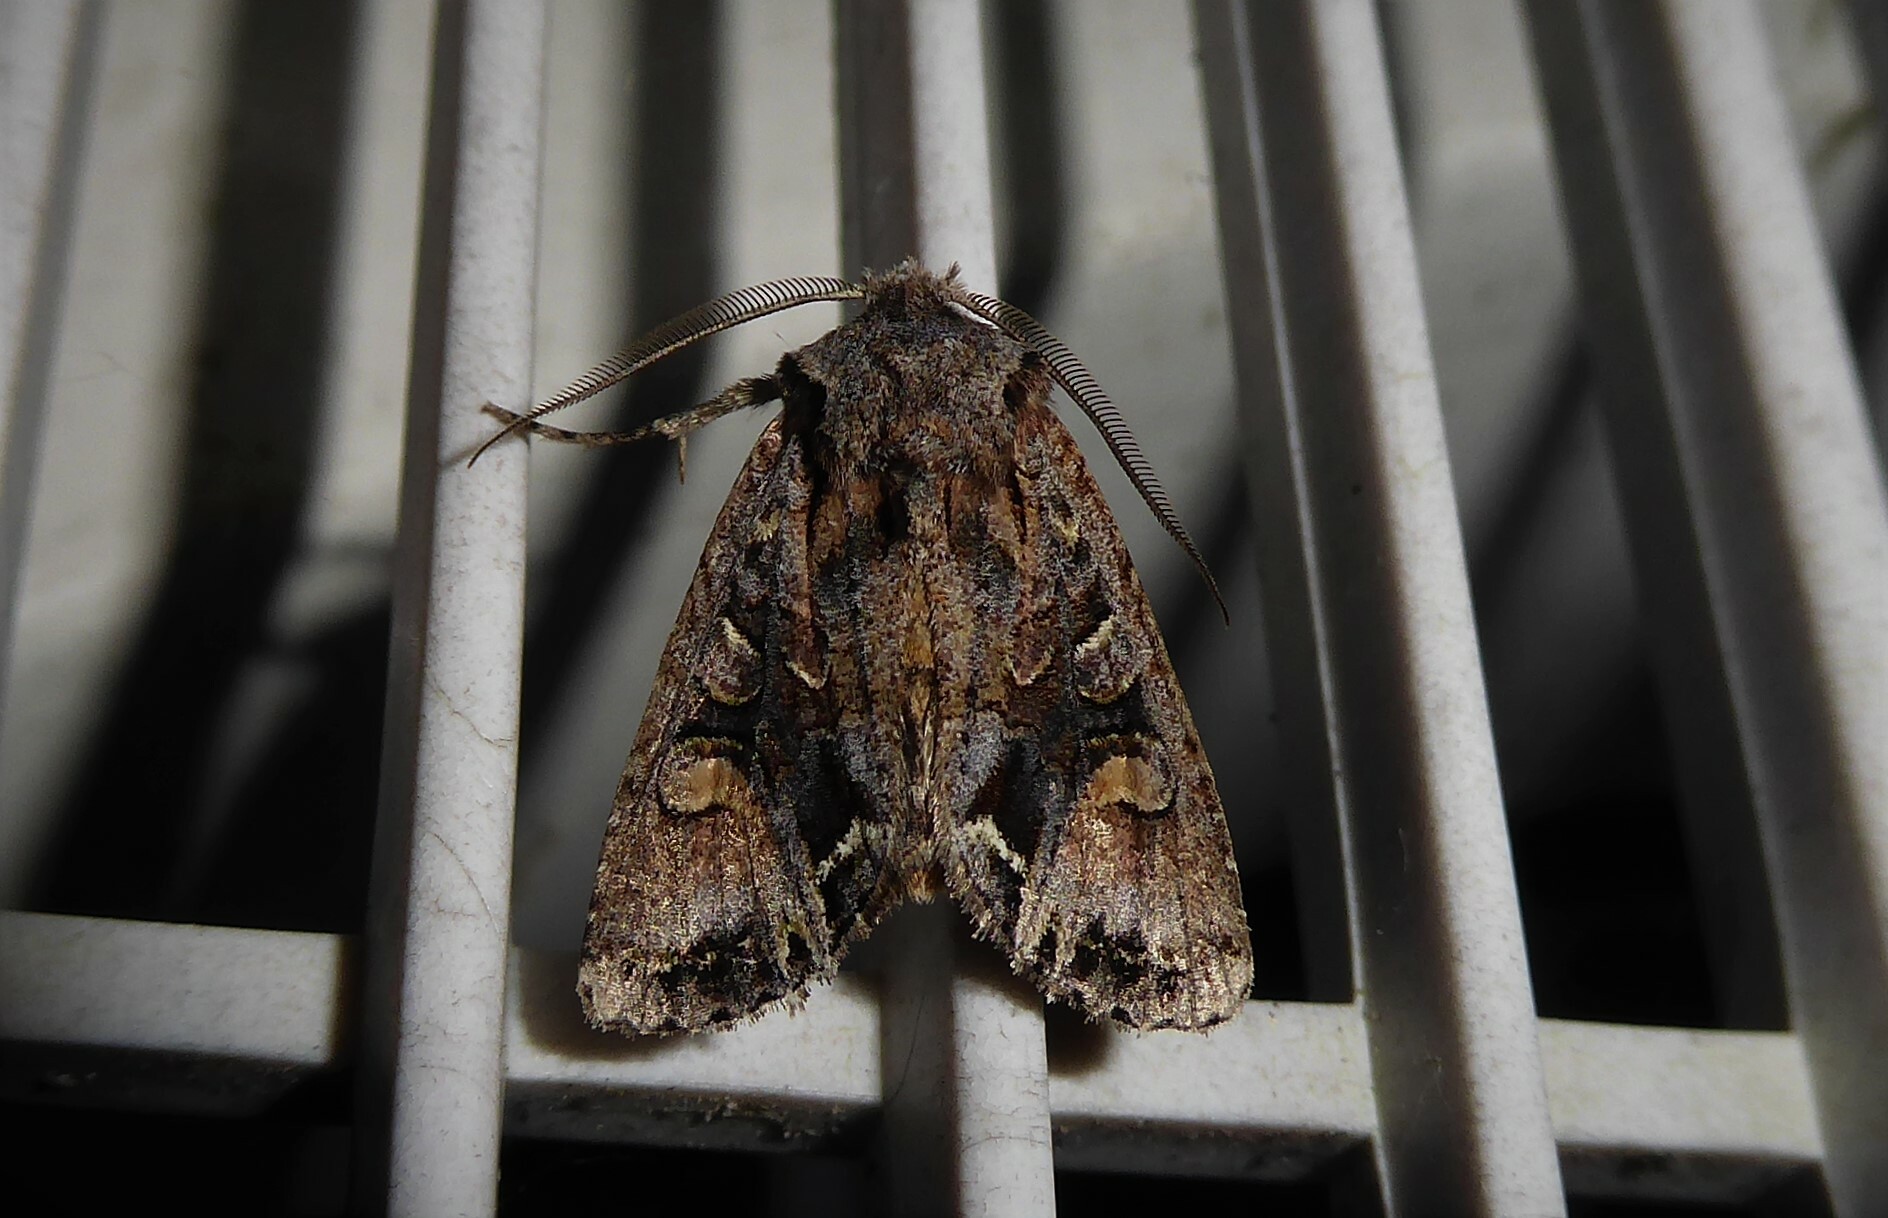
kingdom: Animalia
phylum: Arthropoda
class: Insecta
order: Lepidoptera
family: Noctuidae
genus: Ichneutica
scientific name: Ichneutica skelloni
